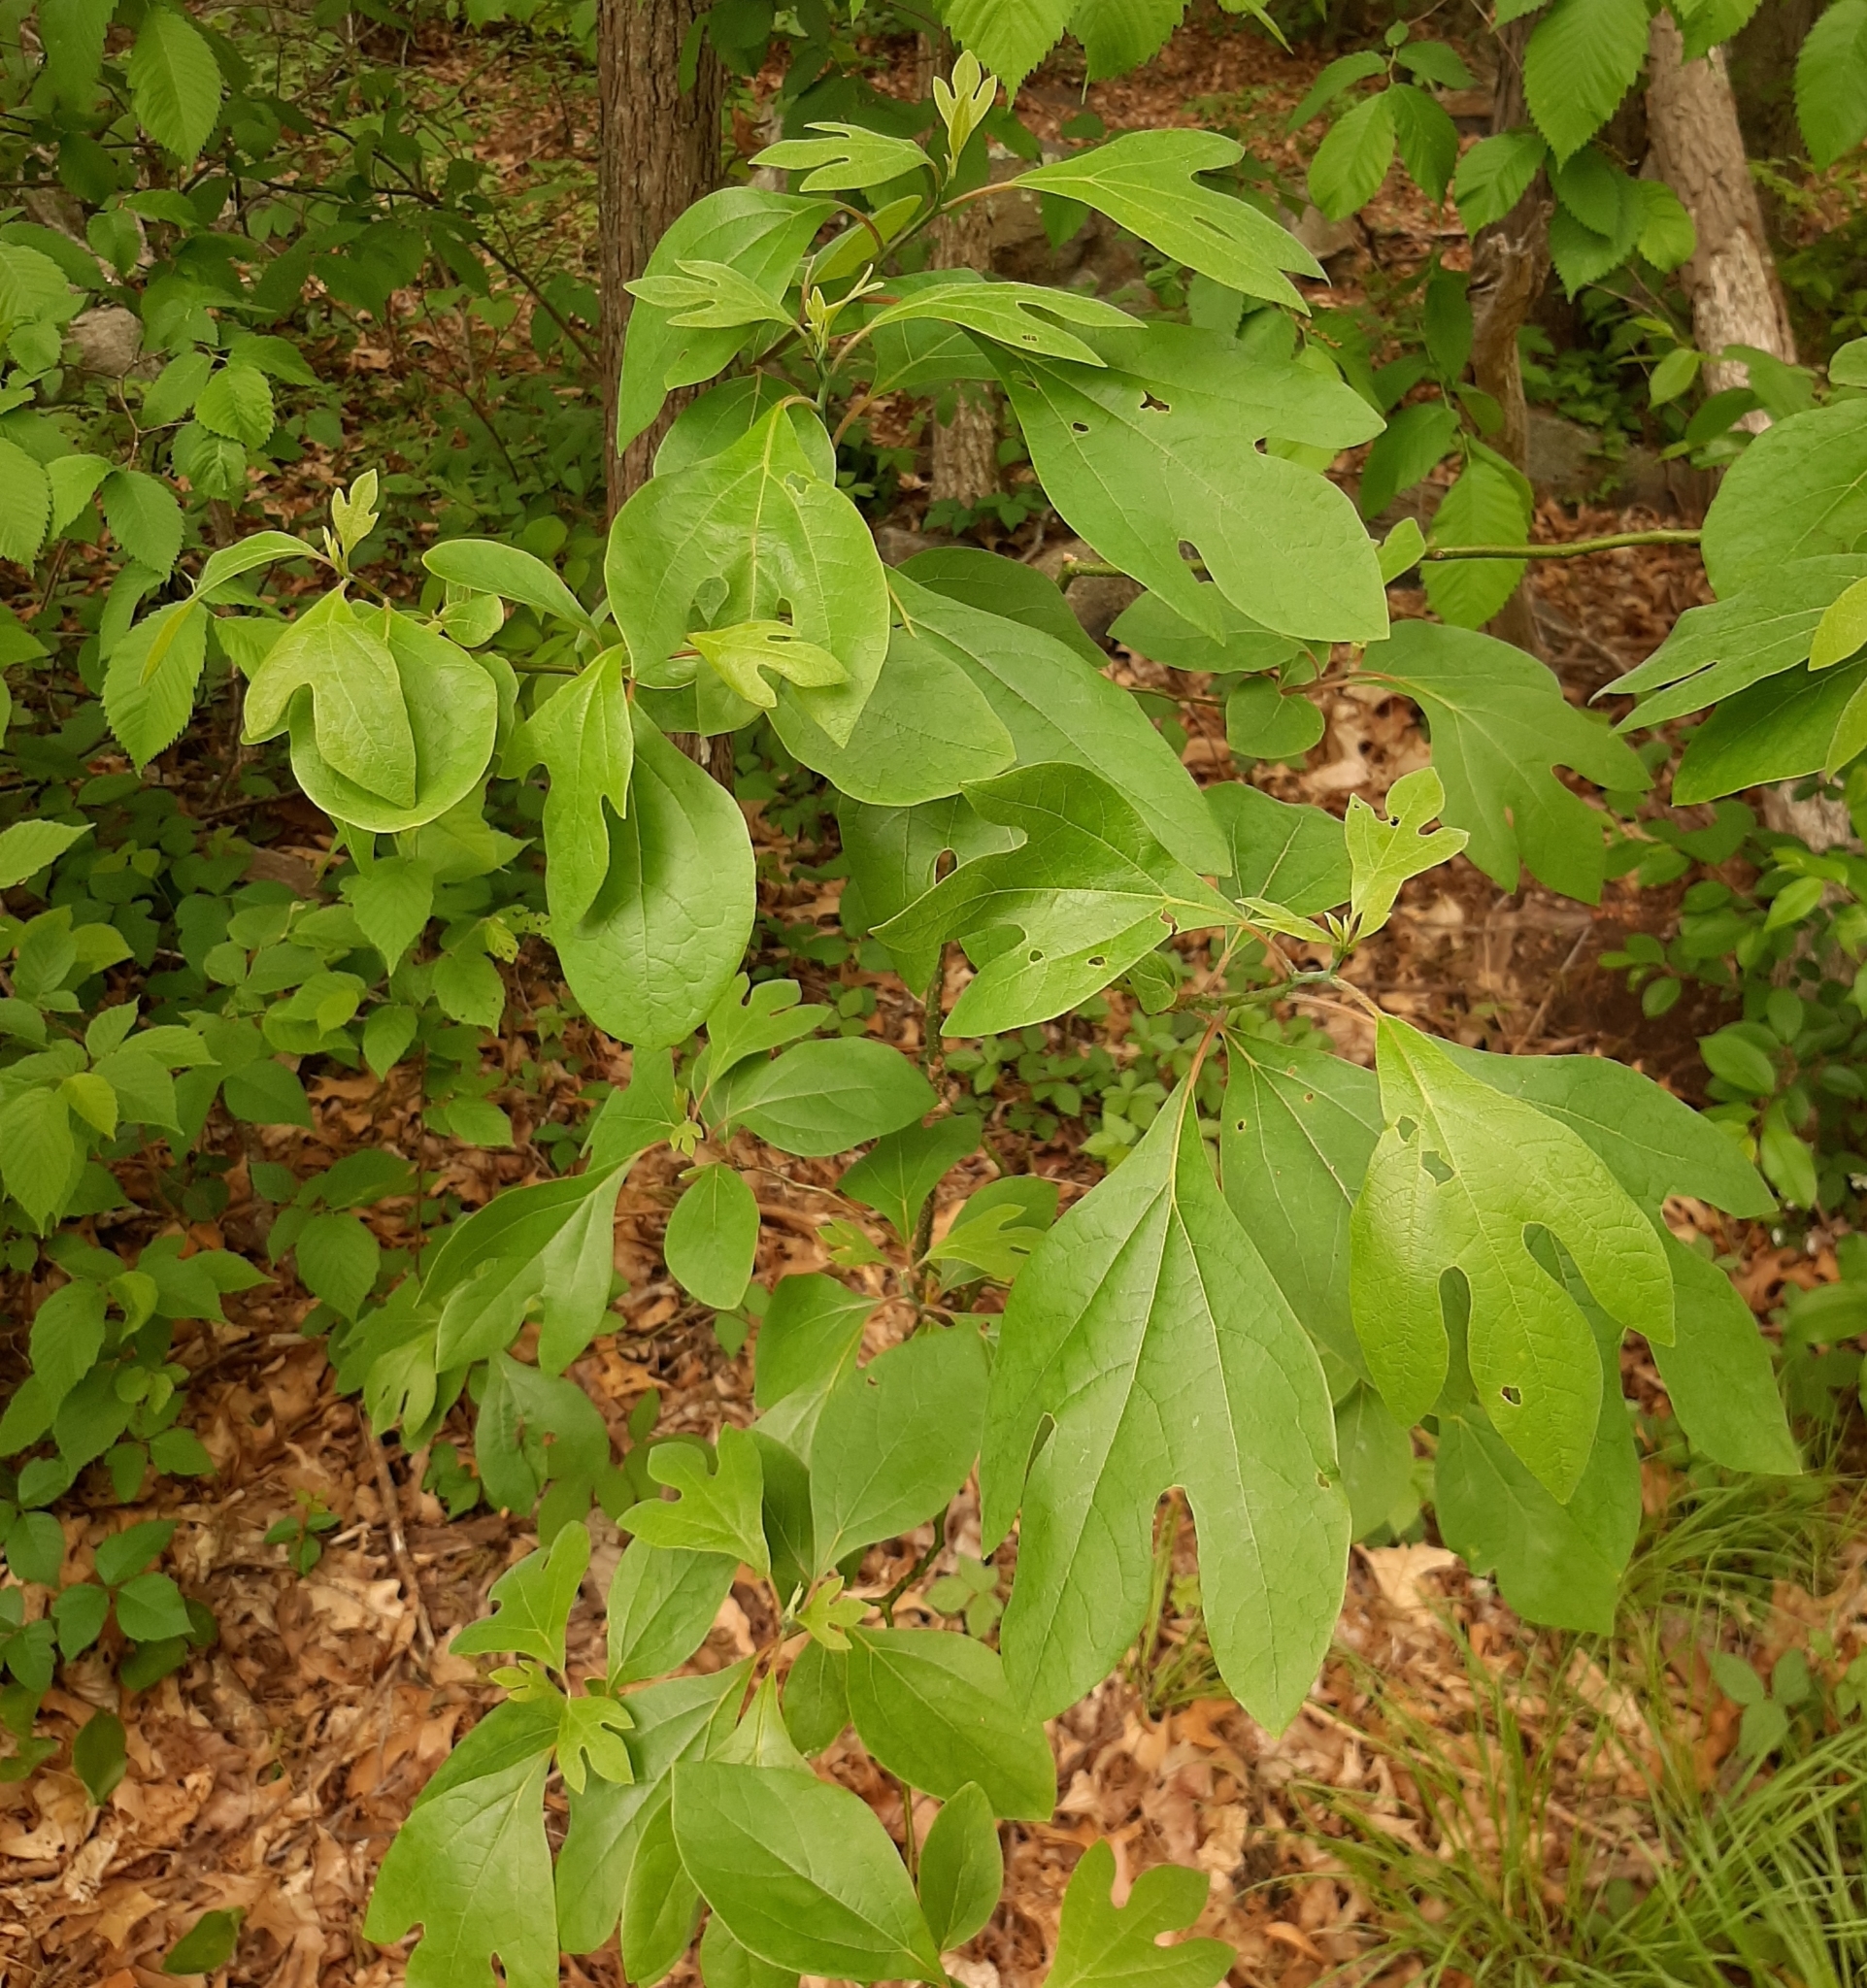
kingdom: Plantae
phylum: Tracheophyta
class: Magnoliopsida
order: Laurales
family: Lauraceae
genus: Sassafras
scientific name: Sassafras albidum
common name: Sassafras
